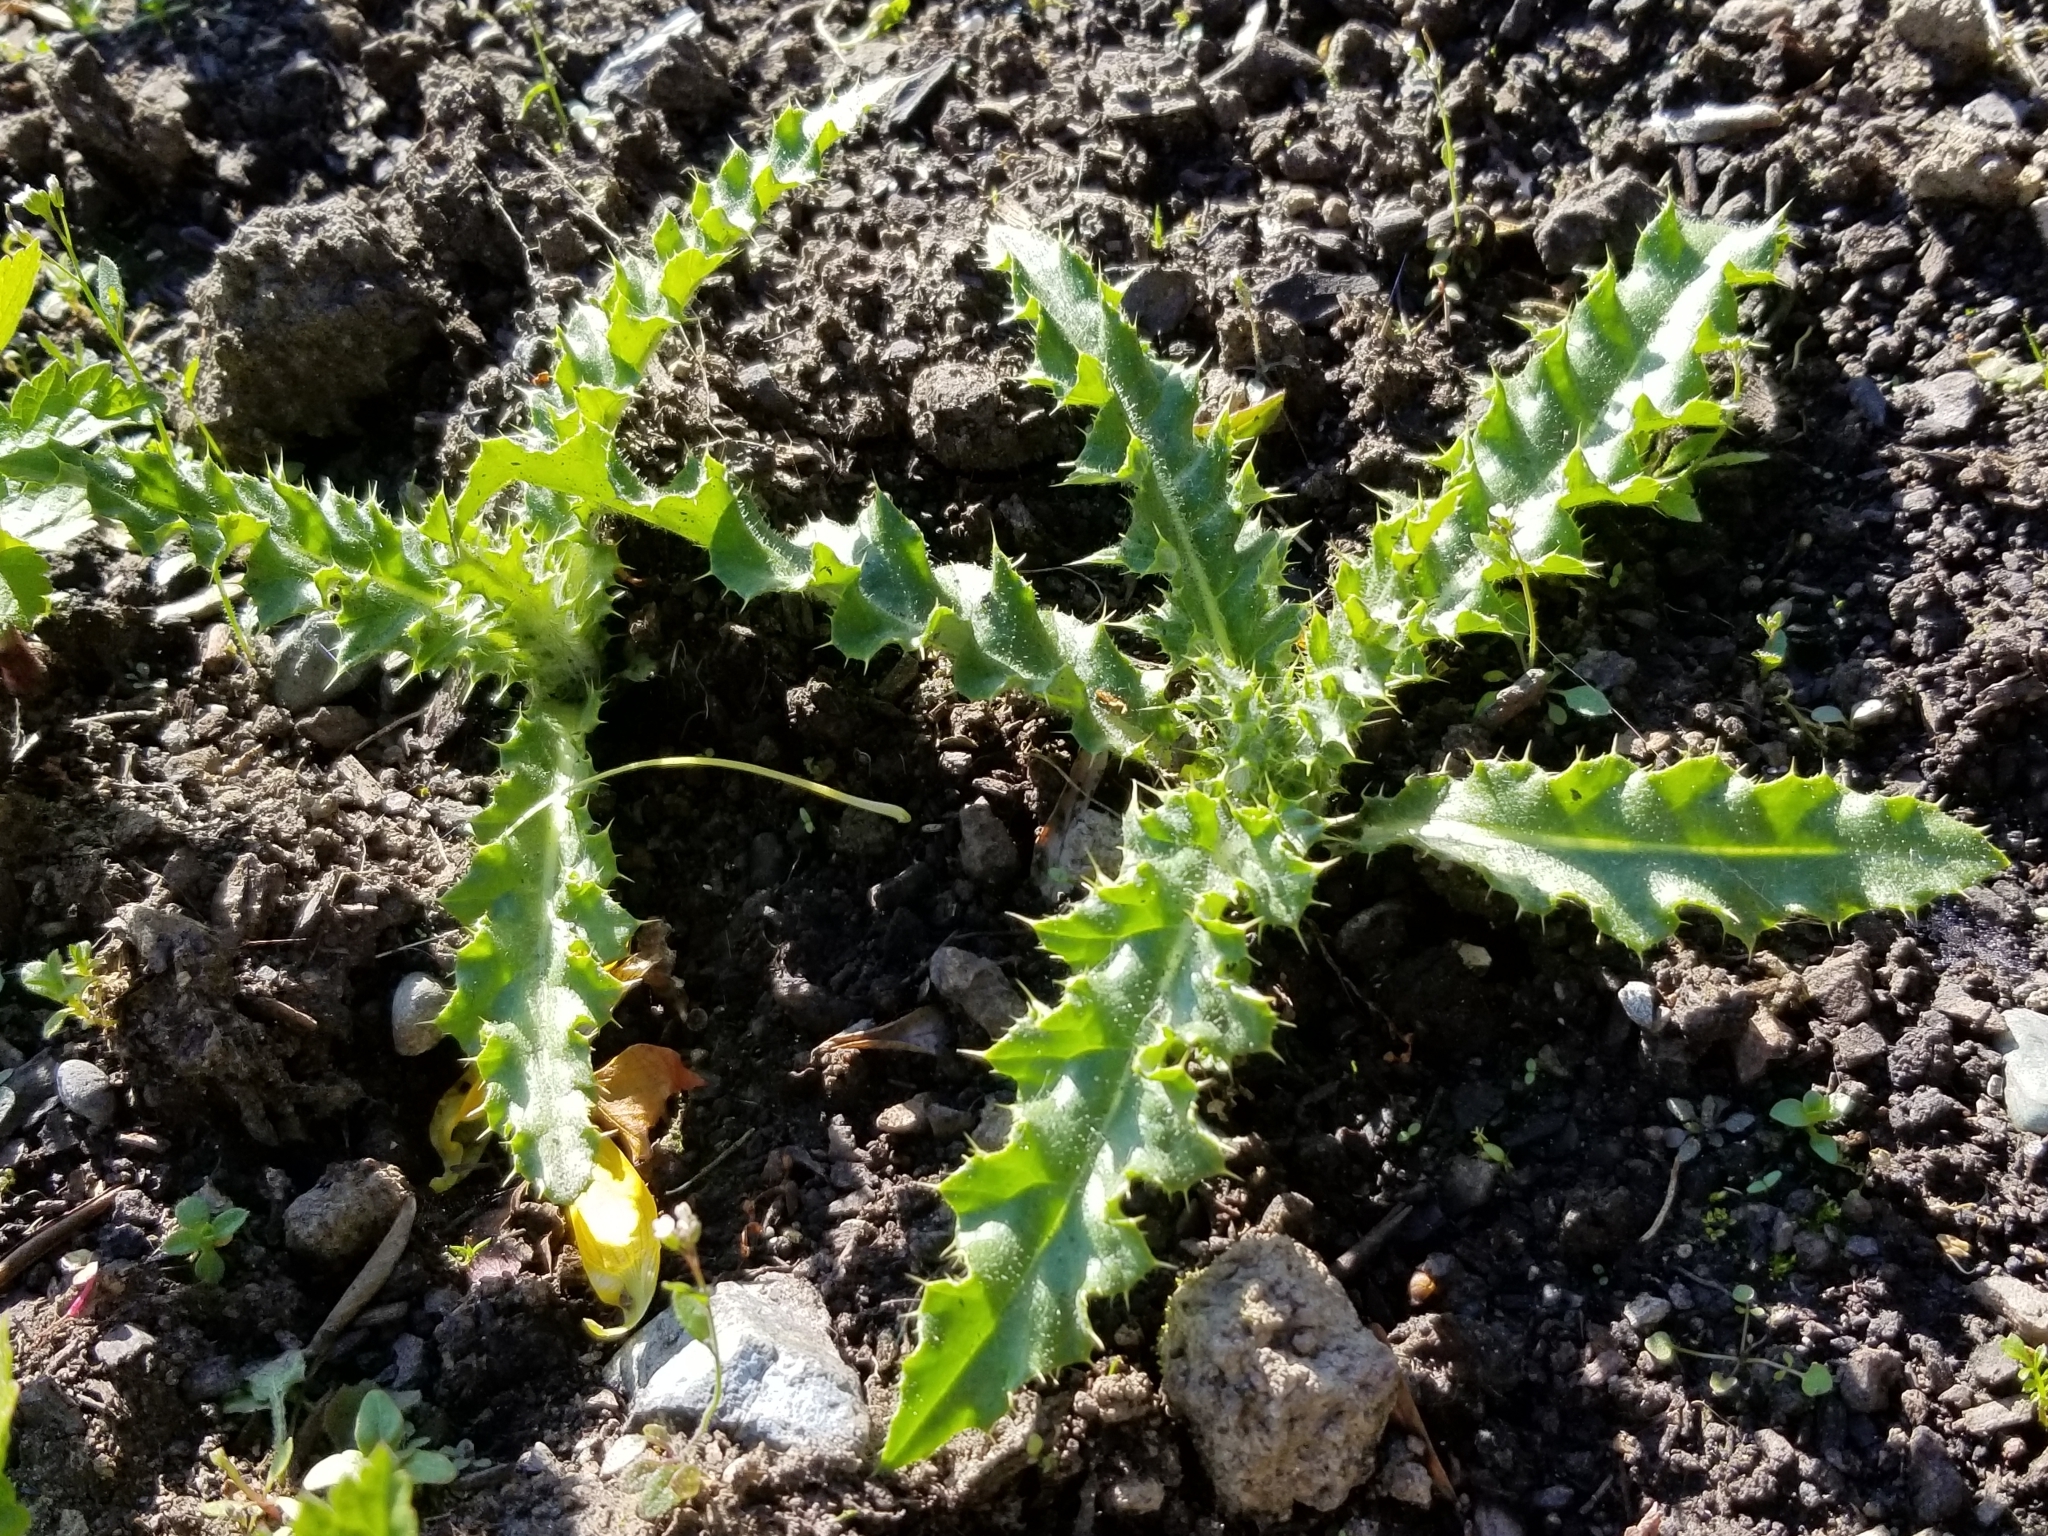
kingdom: Plantae
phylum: Tracheophyta
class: Magnoliopsida
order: Asterales
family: Asteraceae
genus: Cirsium
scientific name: Cirsium arvense
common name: Creeping thistle
